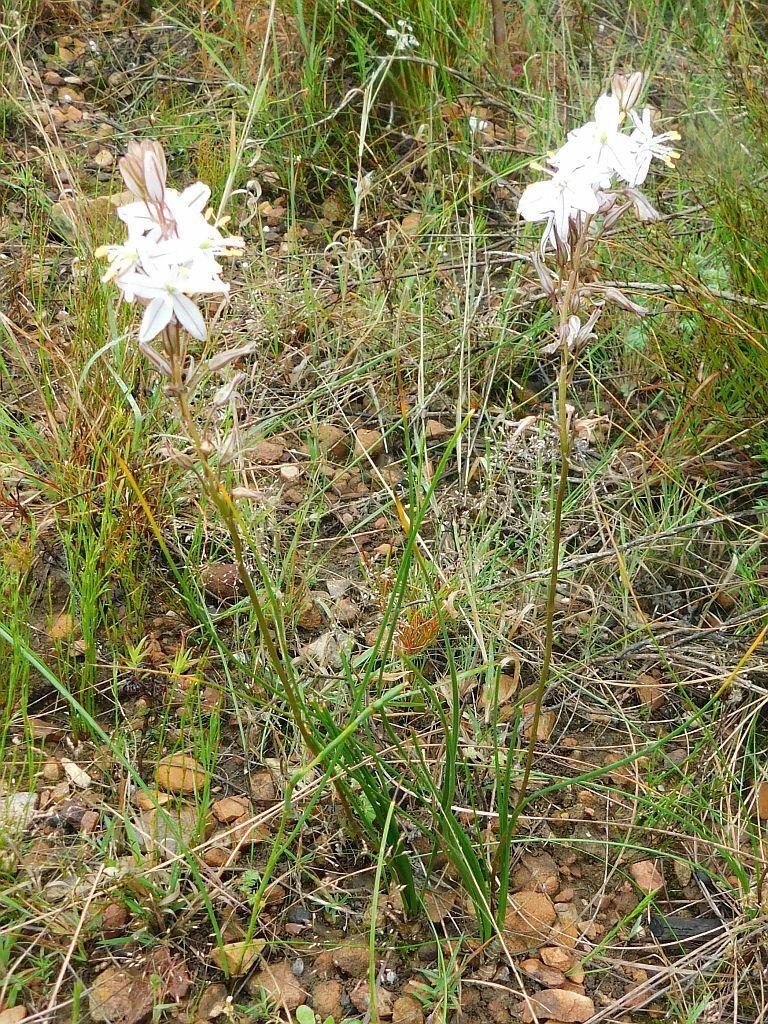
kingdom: Plantae
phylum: Tracheophyta
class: Liliopsida
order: Asparagales
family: Asparagaceae
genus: Drimia
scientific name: Drimia exuviata
